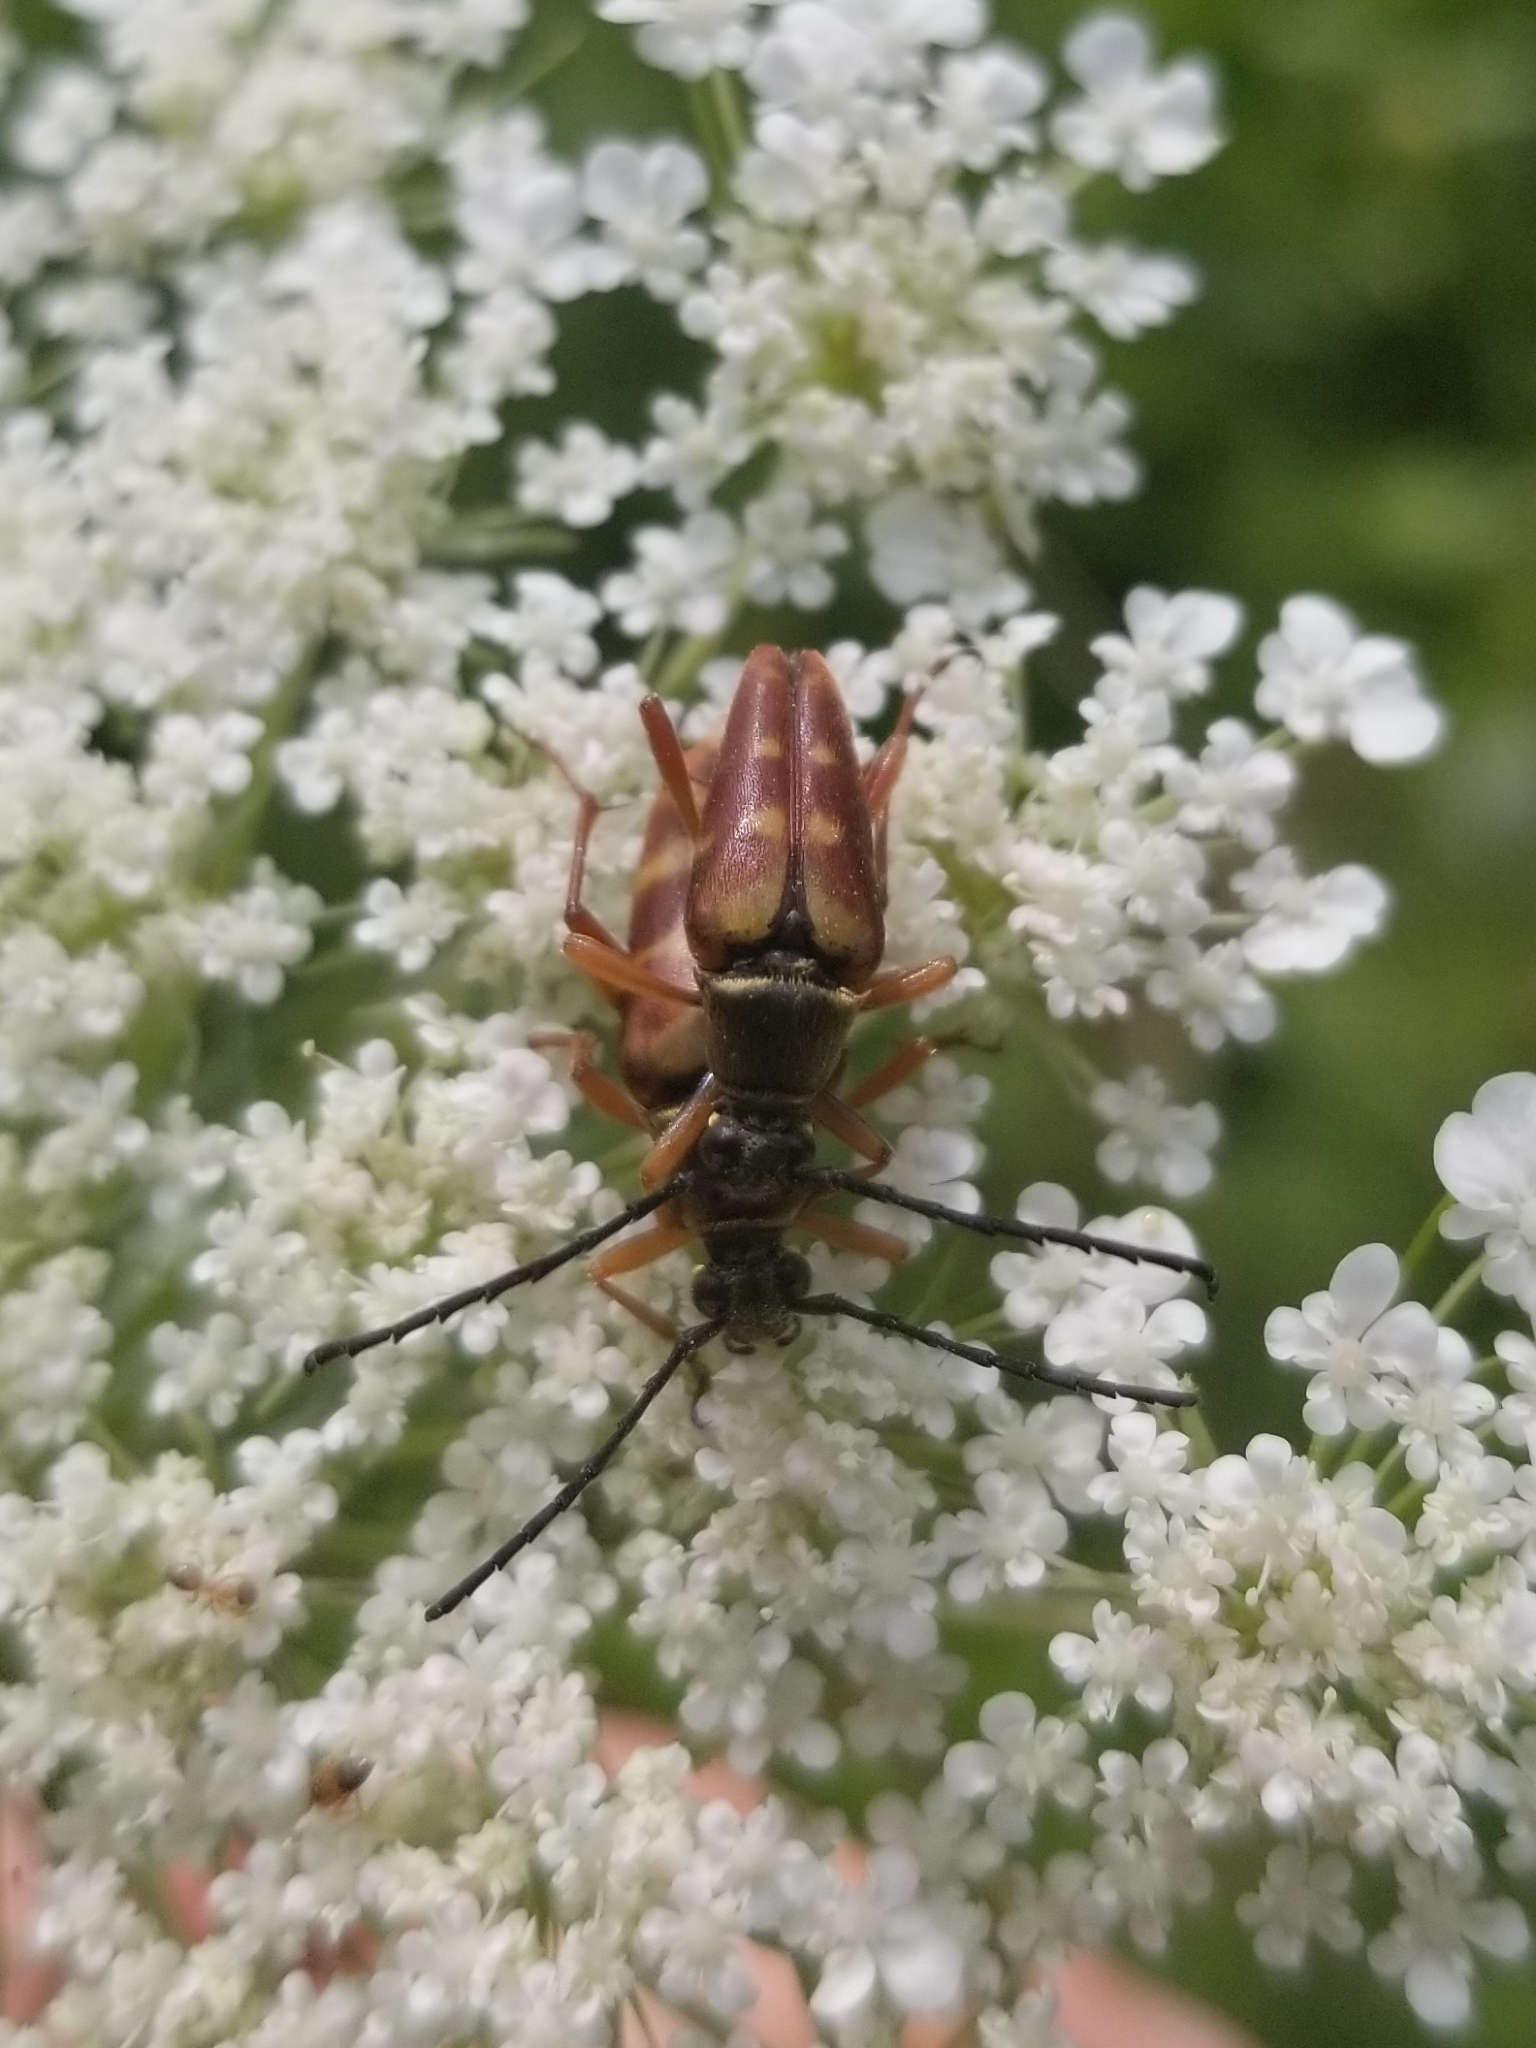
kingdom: Animalia
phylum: Arthropoda
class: Insecta
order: Coleoptera
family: Cerambycidae
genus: Typocerus
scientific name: Typocerus velutinus
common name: Banded longhorn beetle
